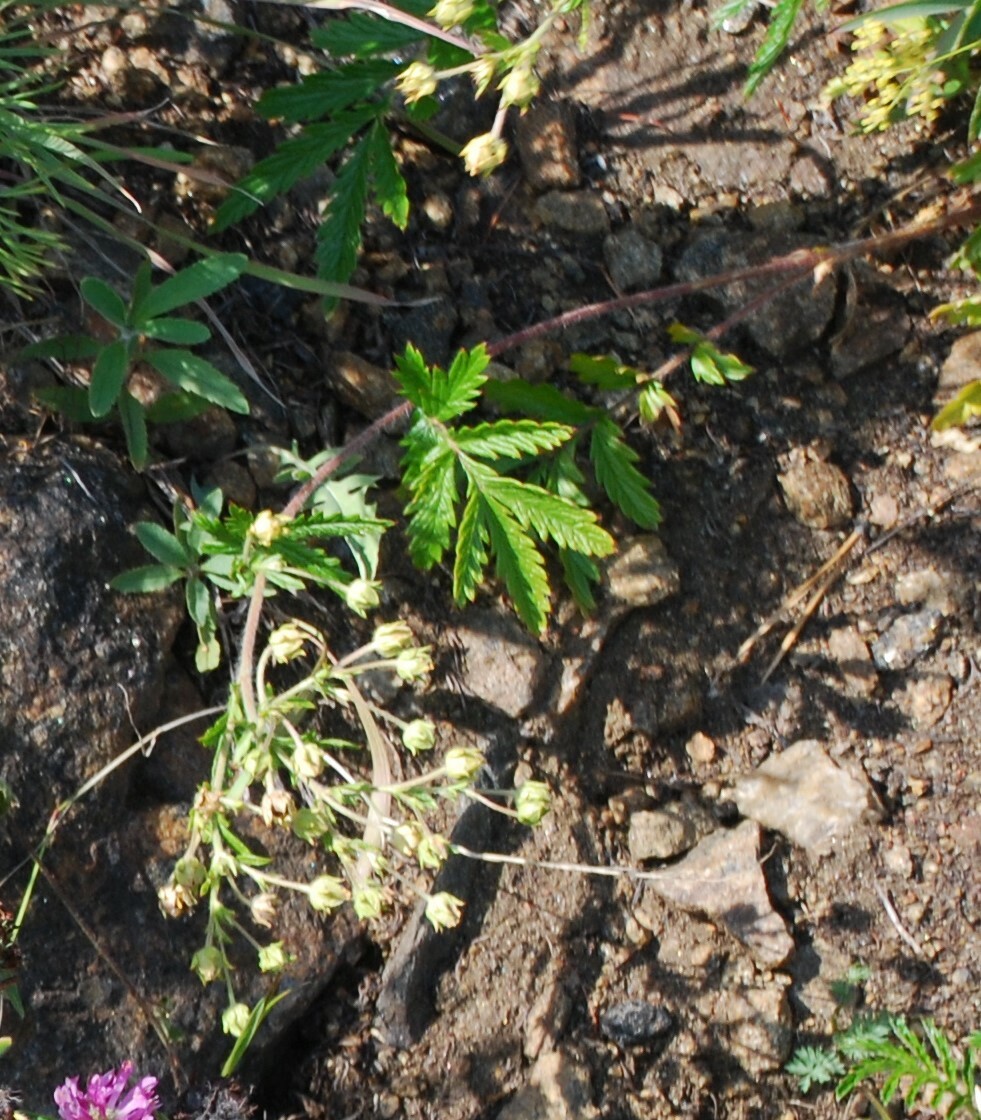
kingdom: Plantae
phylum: Tracheophyta
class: Magnoliopsida
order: Rosales
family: Rosaceae
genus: Potentilla
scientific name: Potentilla tanacetifolia
